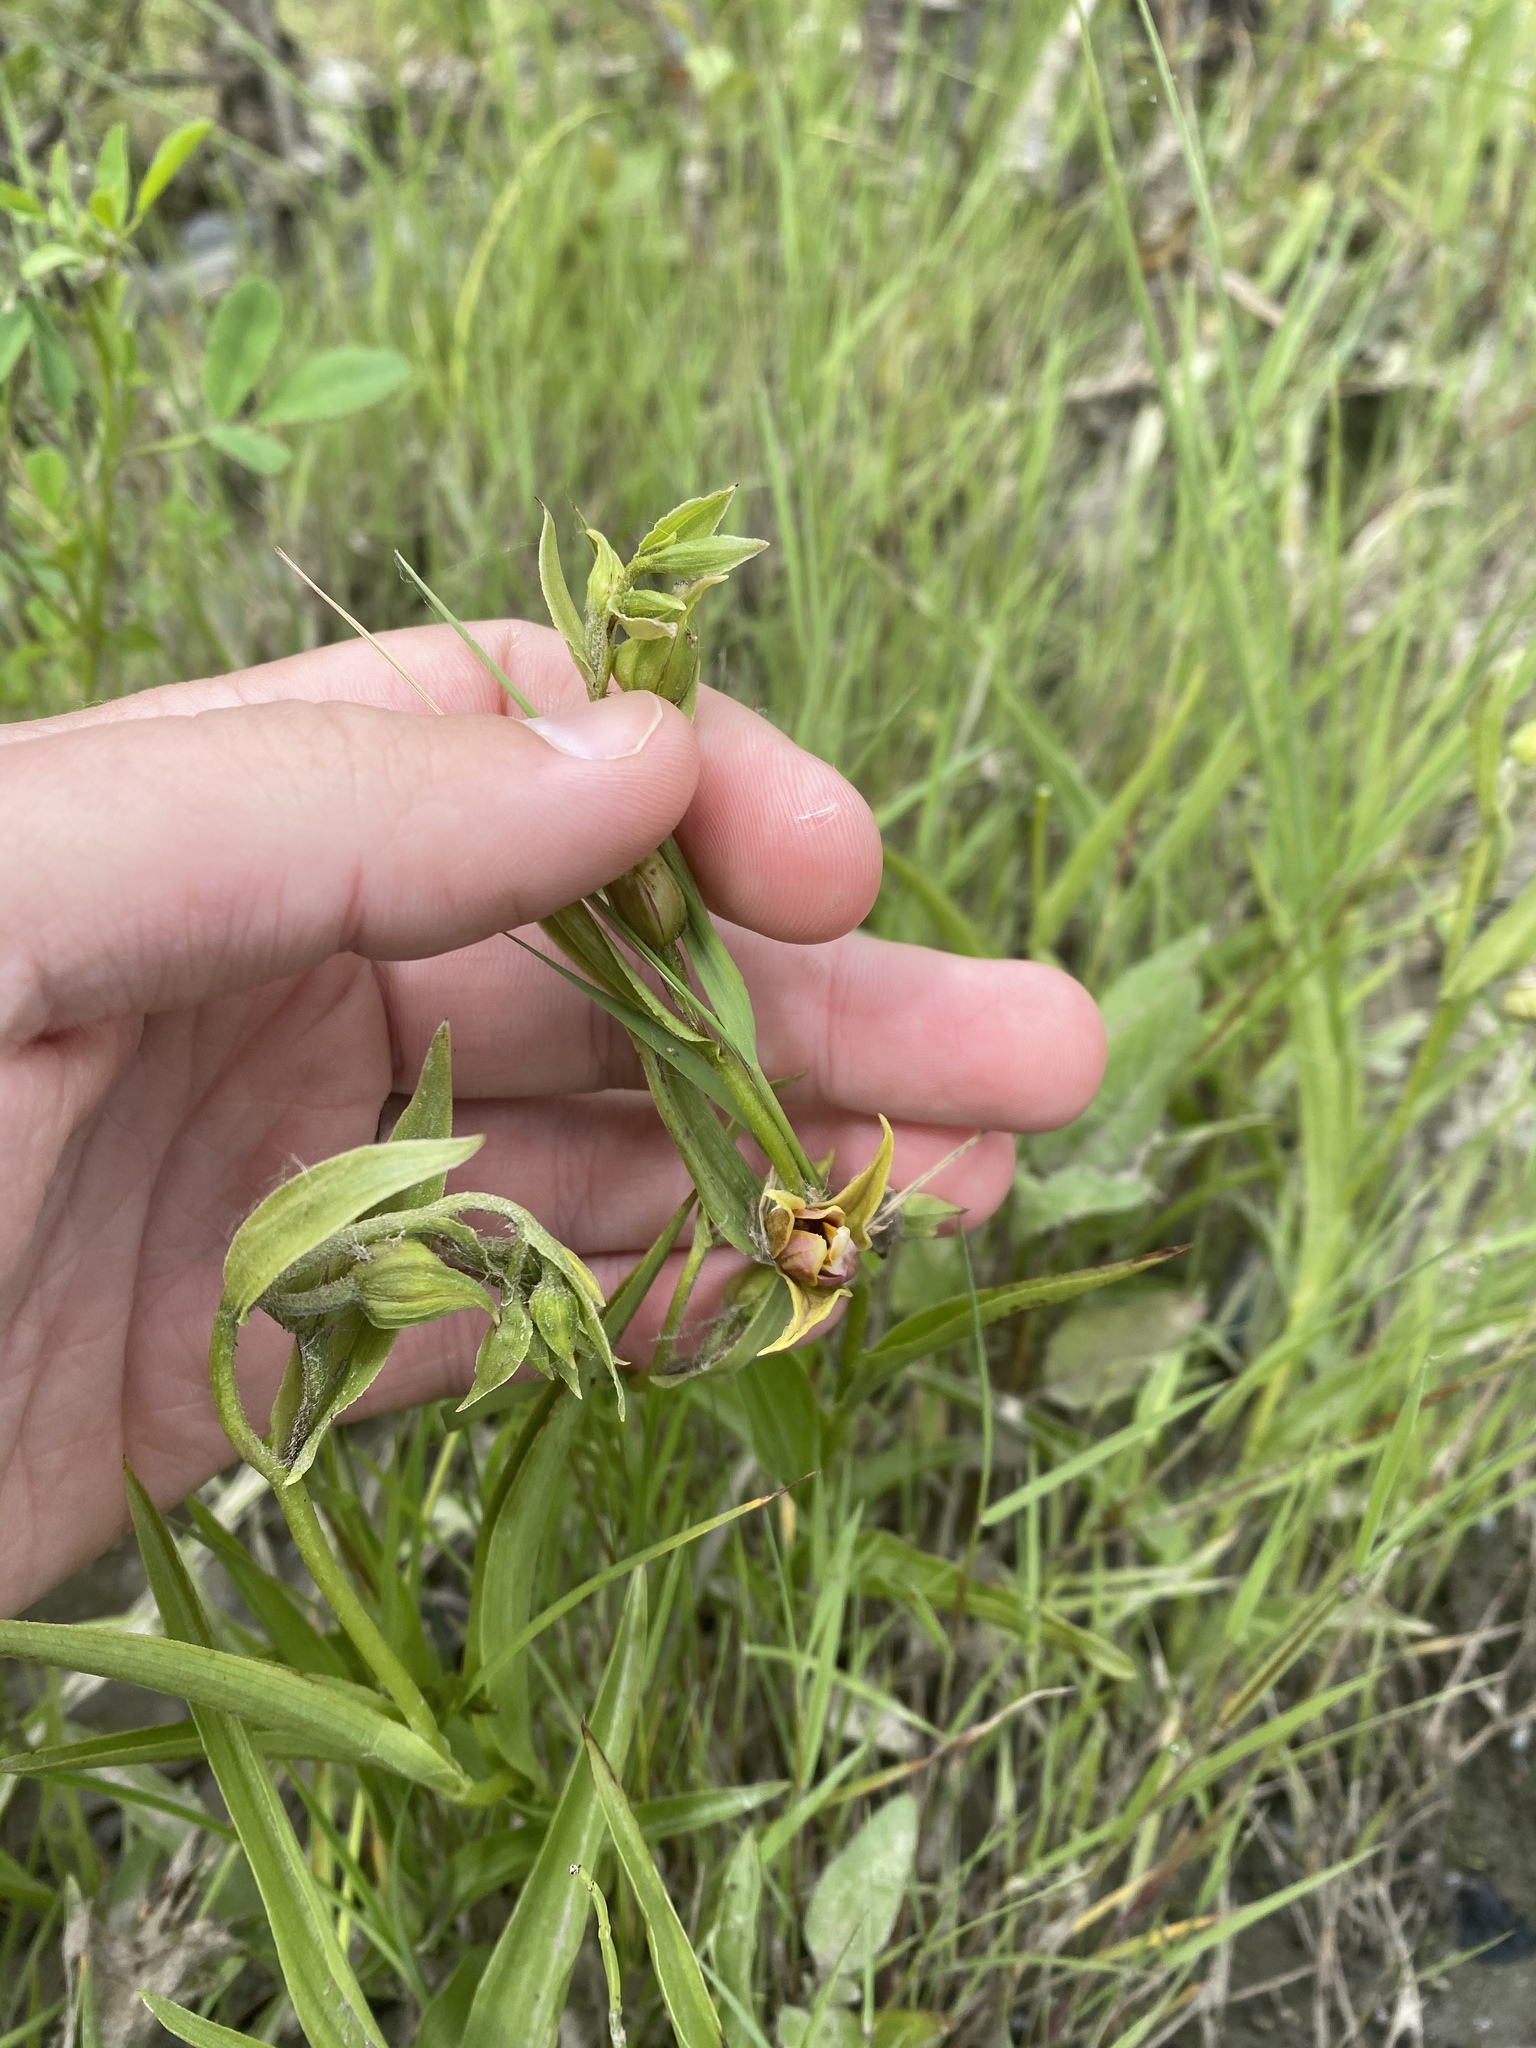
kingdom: Plantae
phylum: Tracheophyta
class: Liliopsida
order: Asparagales
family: Orchidaceae
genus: Epipactis
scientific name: Epipactis gigantea
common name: Chatterbox
